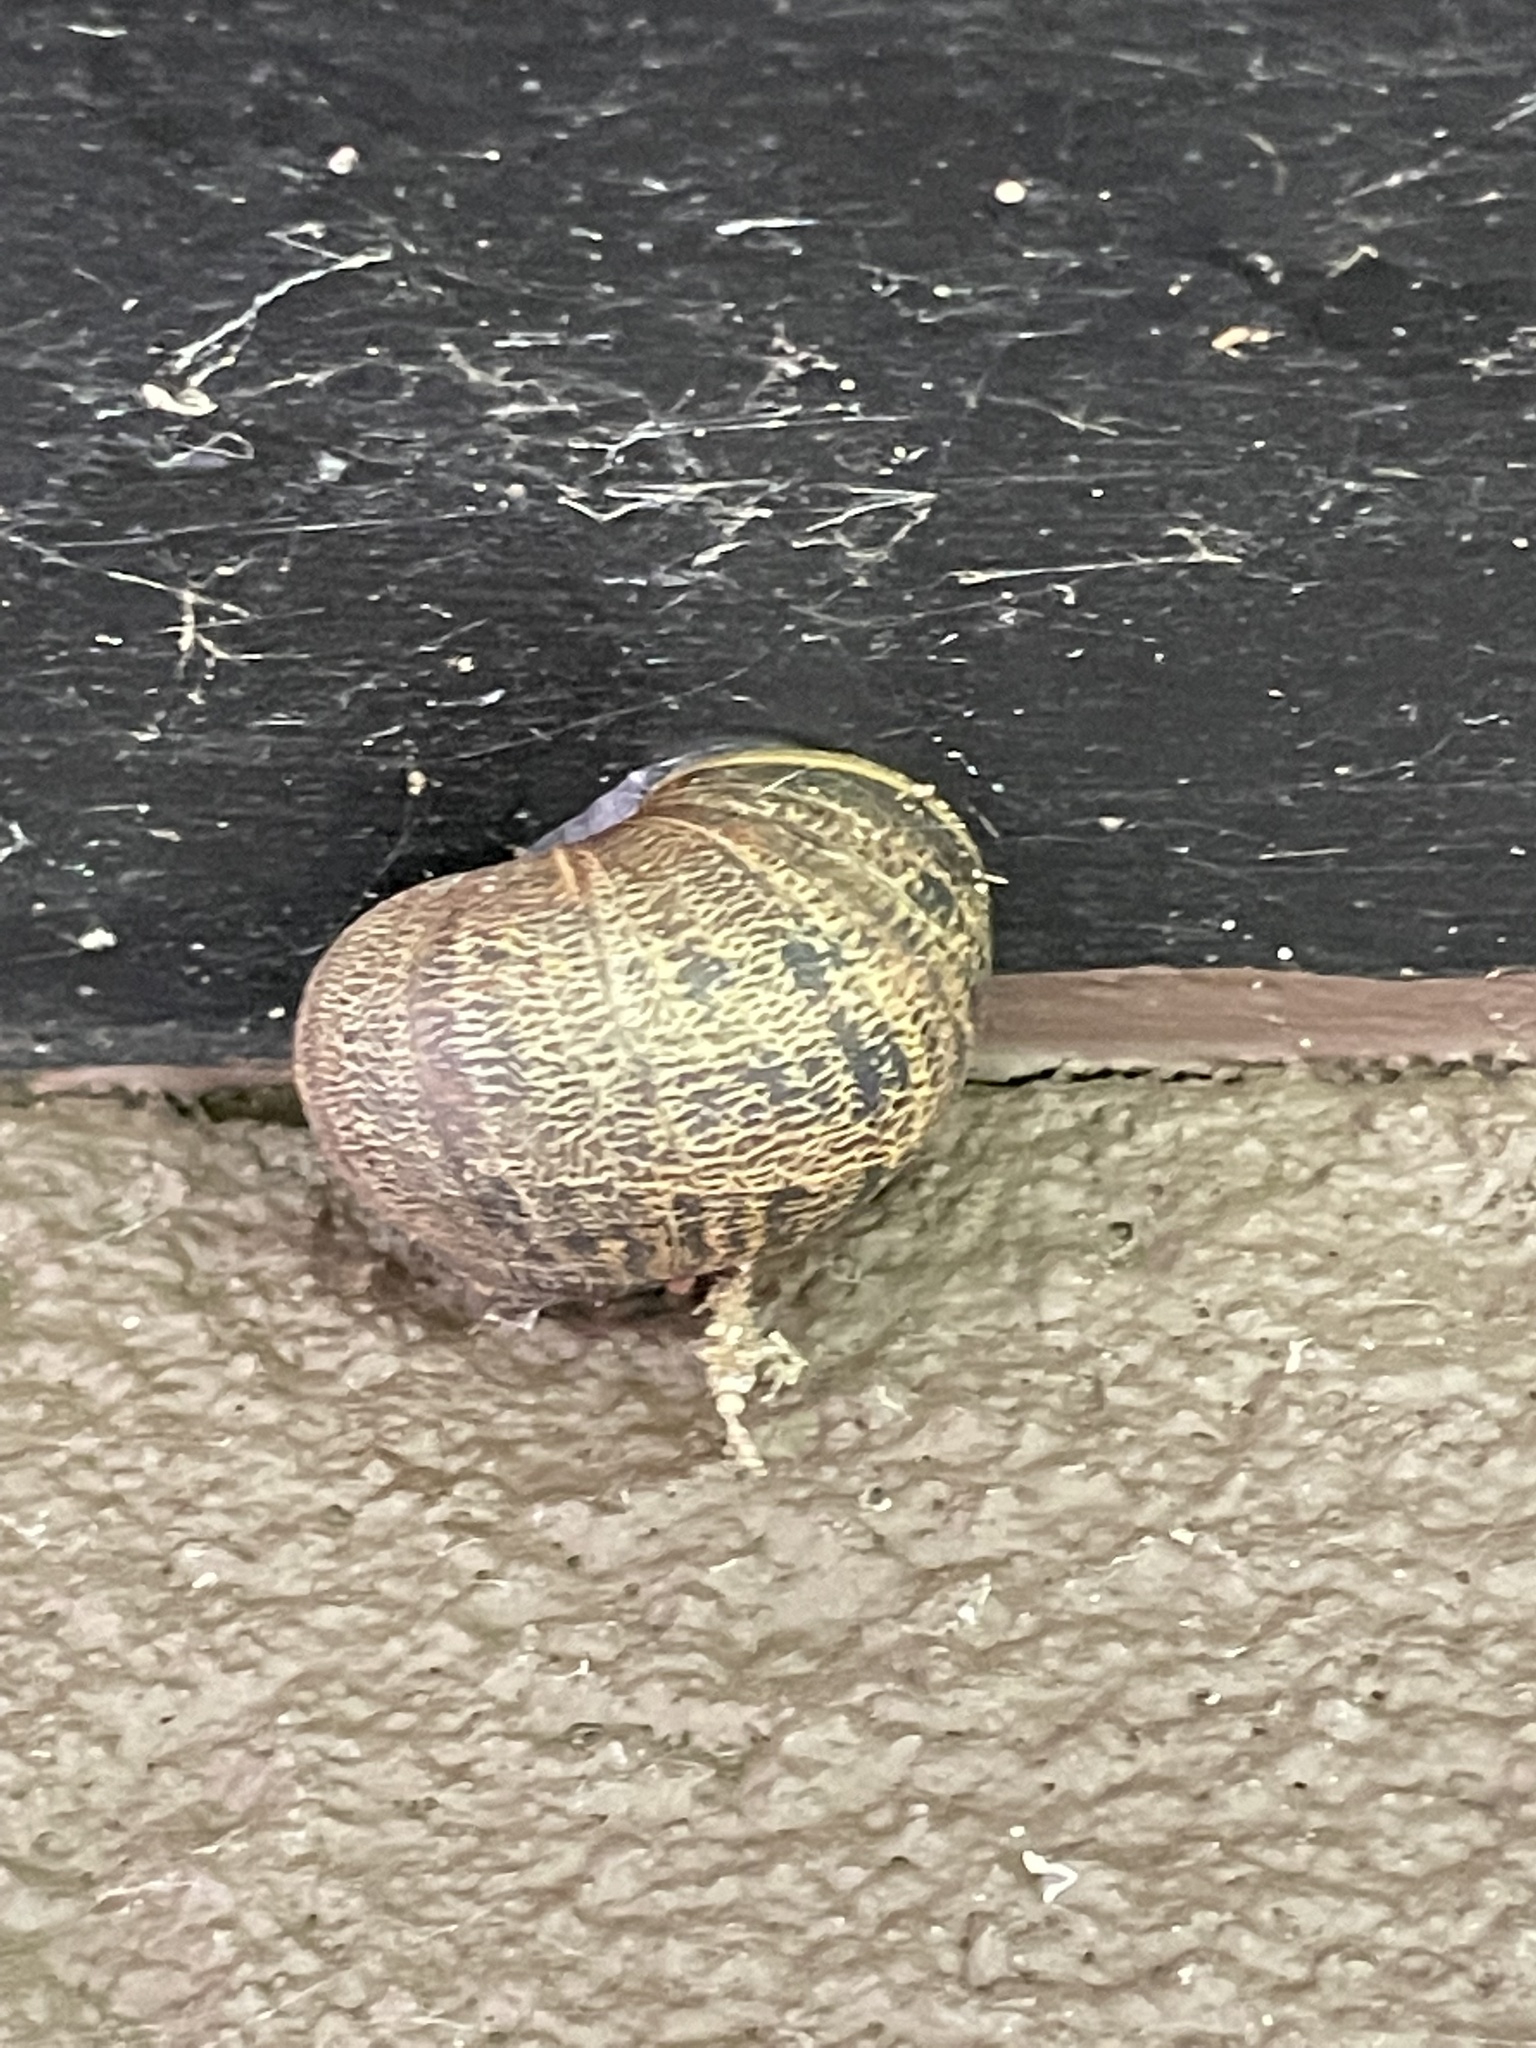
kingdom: Animalia
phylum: Mollusca
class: Gastropoda
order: Stylommatophora
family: Helicidae
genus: Cornu
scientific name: Cornu aspersum
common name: Brown garden snail
